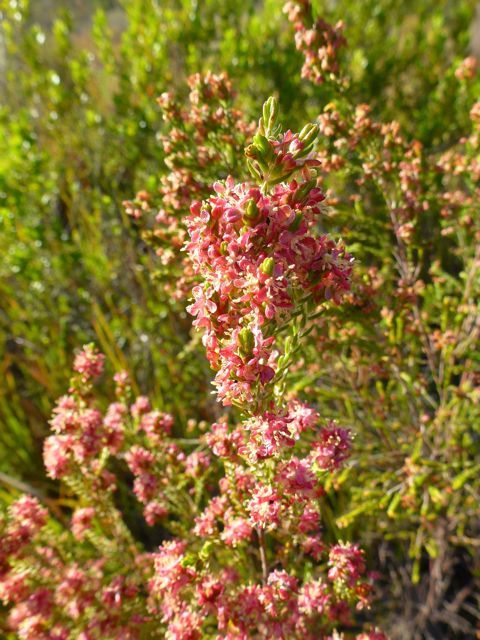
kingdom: Plantae
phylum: Tracheophyta
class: Magnoliopsida
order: Malvales
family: Thymelaeaceae
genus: Passerina
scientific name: Passerina falcifolia
